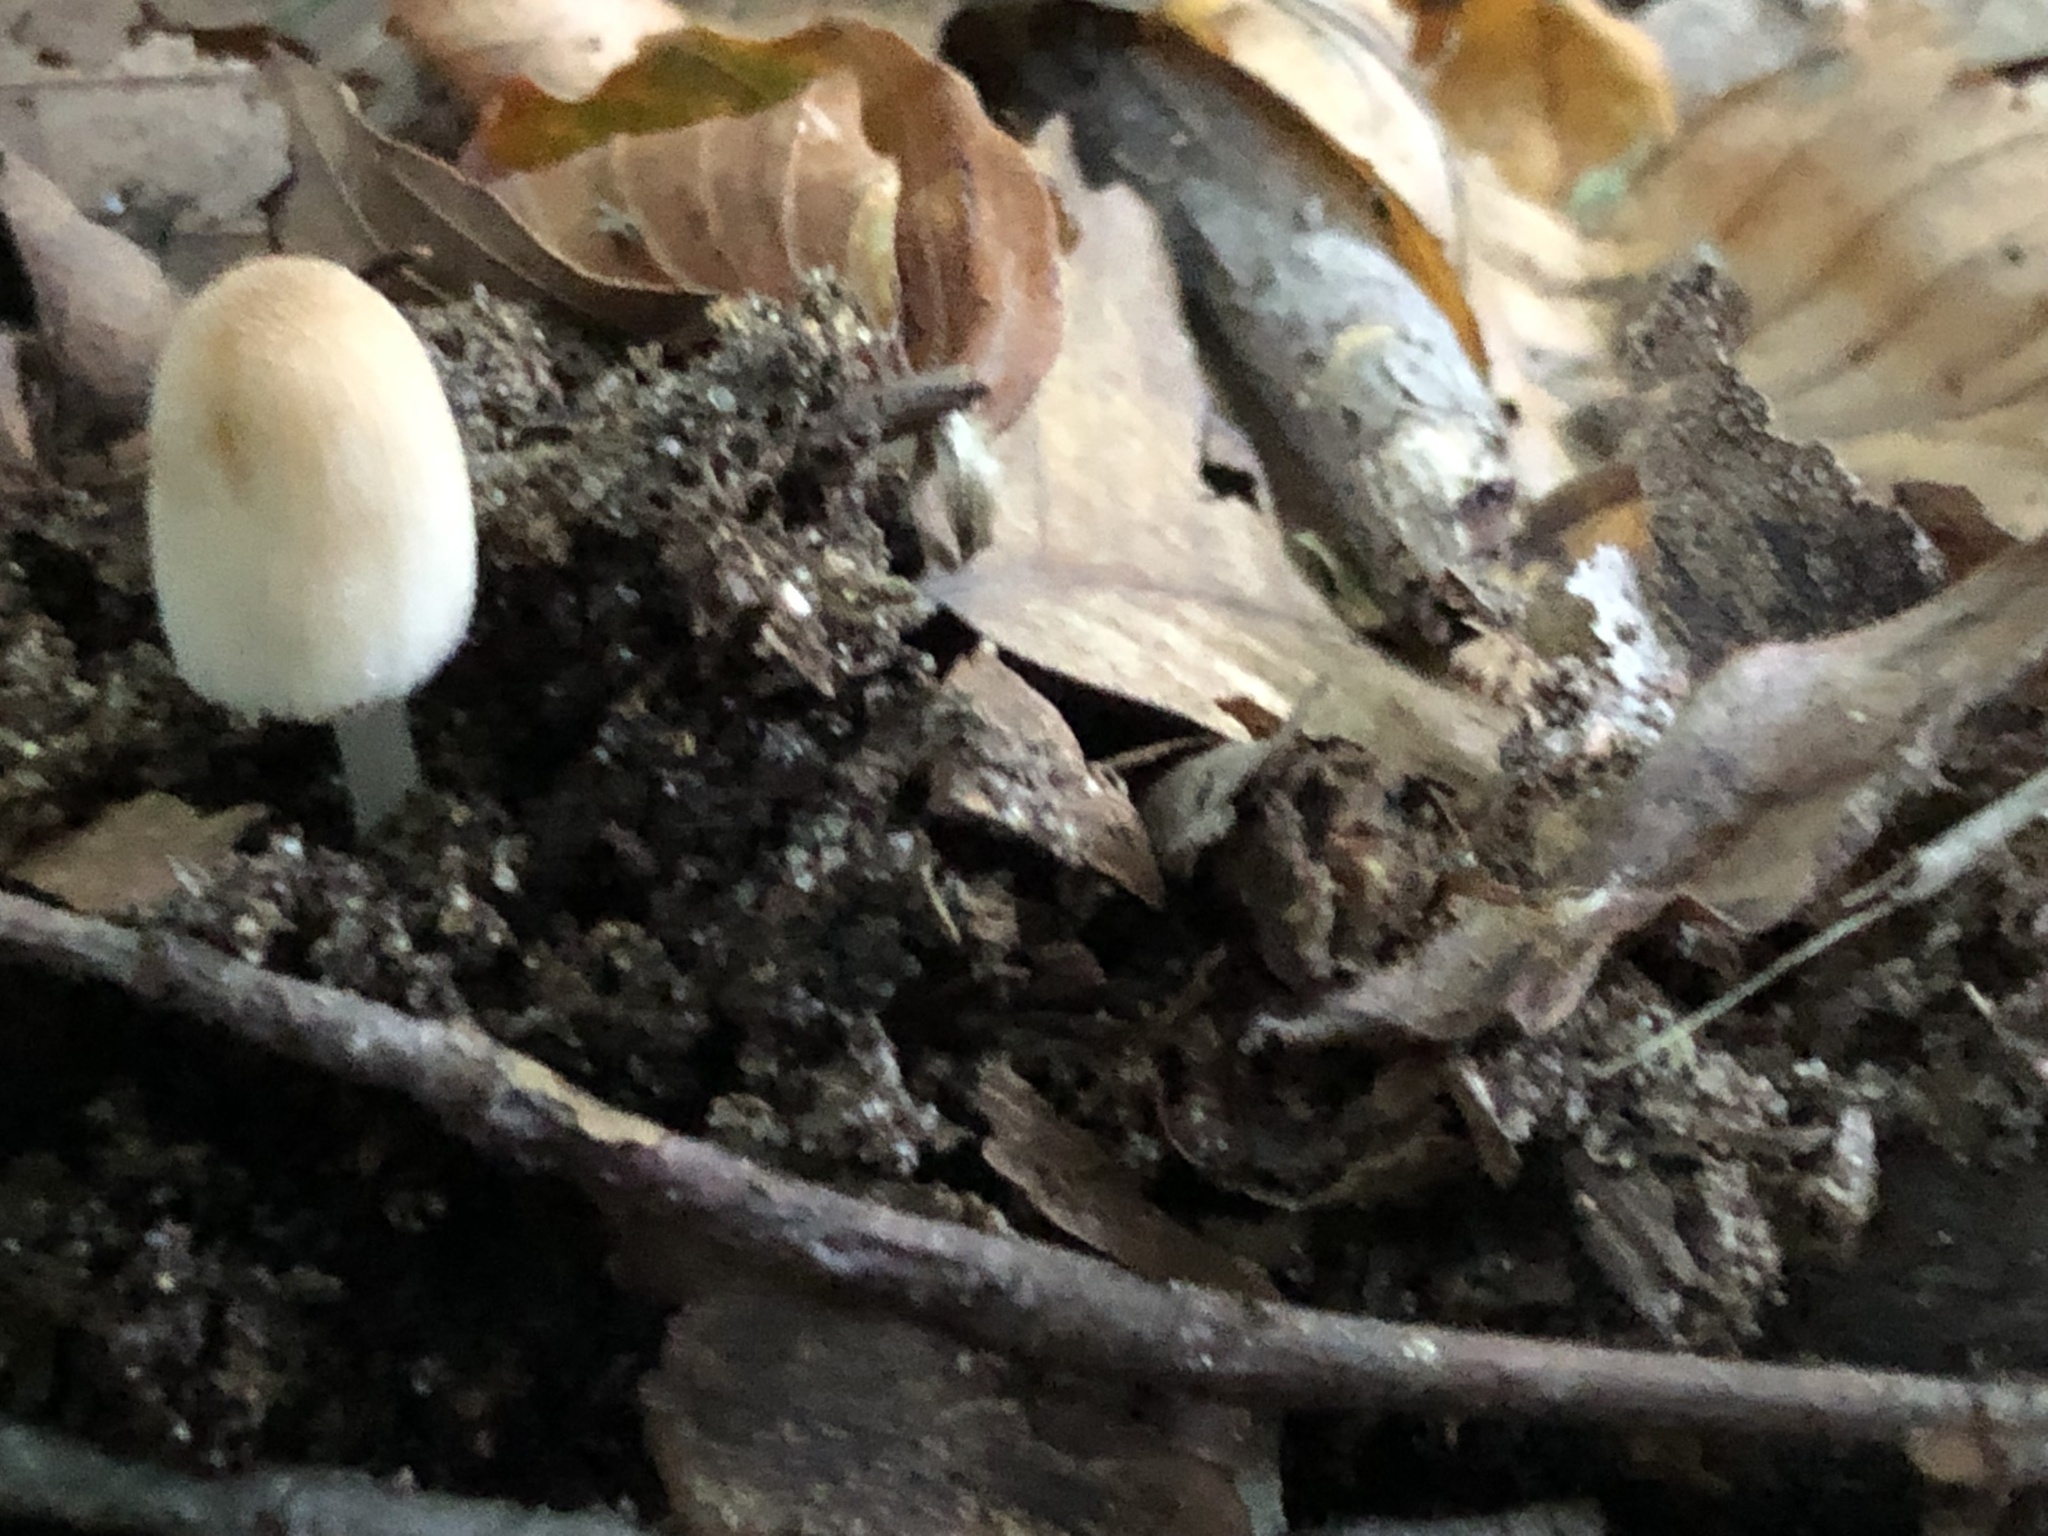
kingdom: Fungi
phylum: Basidiomycota
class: Agaricomycetes
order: Agaricales
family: Psathyrellaceae
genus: Coprinellus
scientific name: Coprinellus micaceus
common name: Glistening ink-cap
